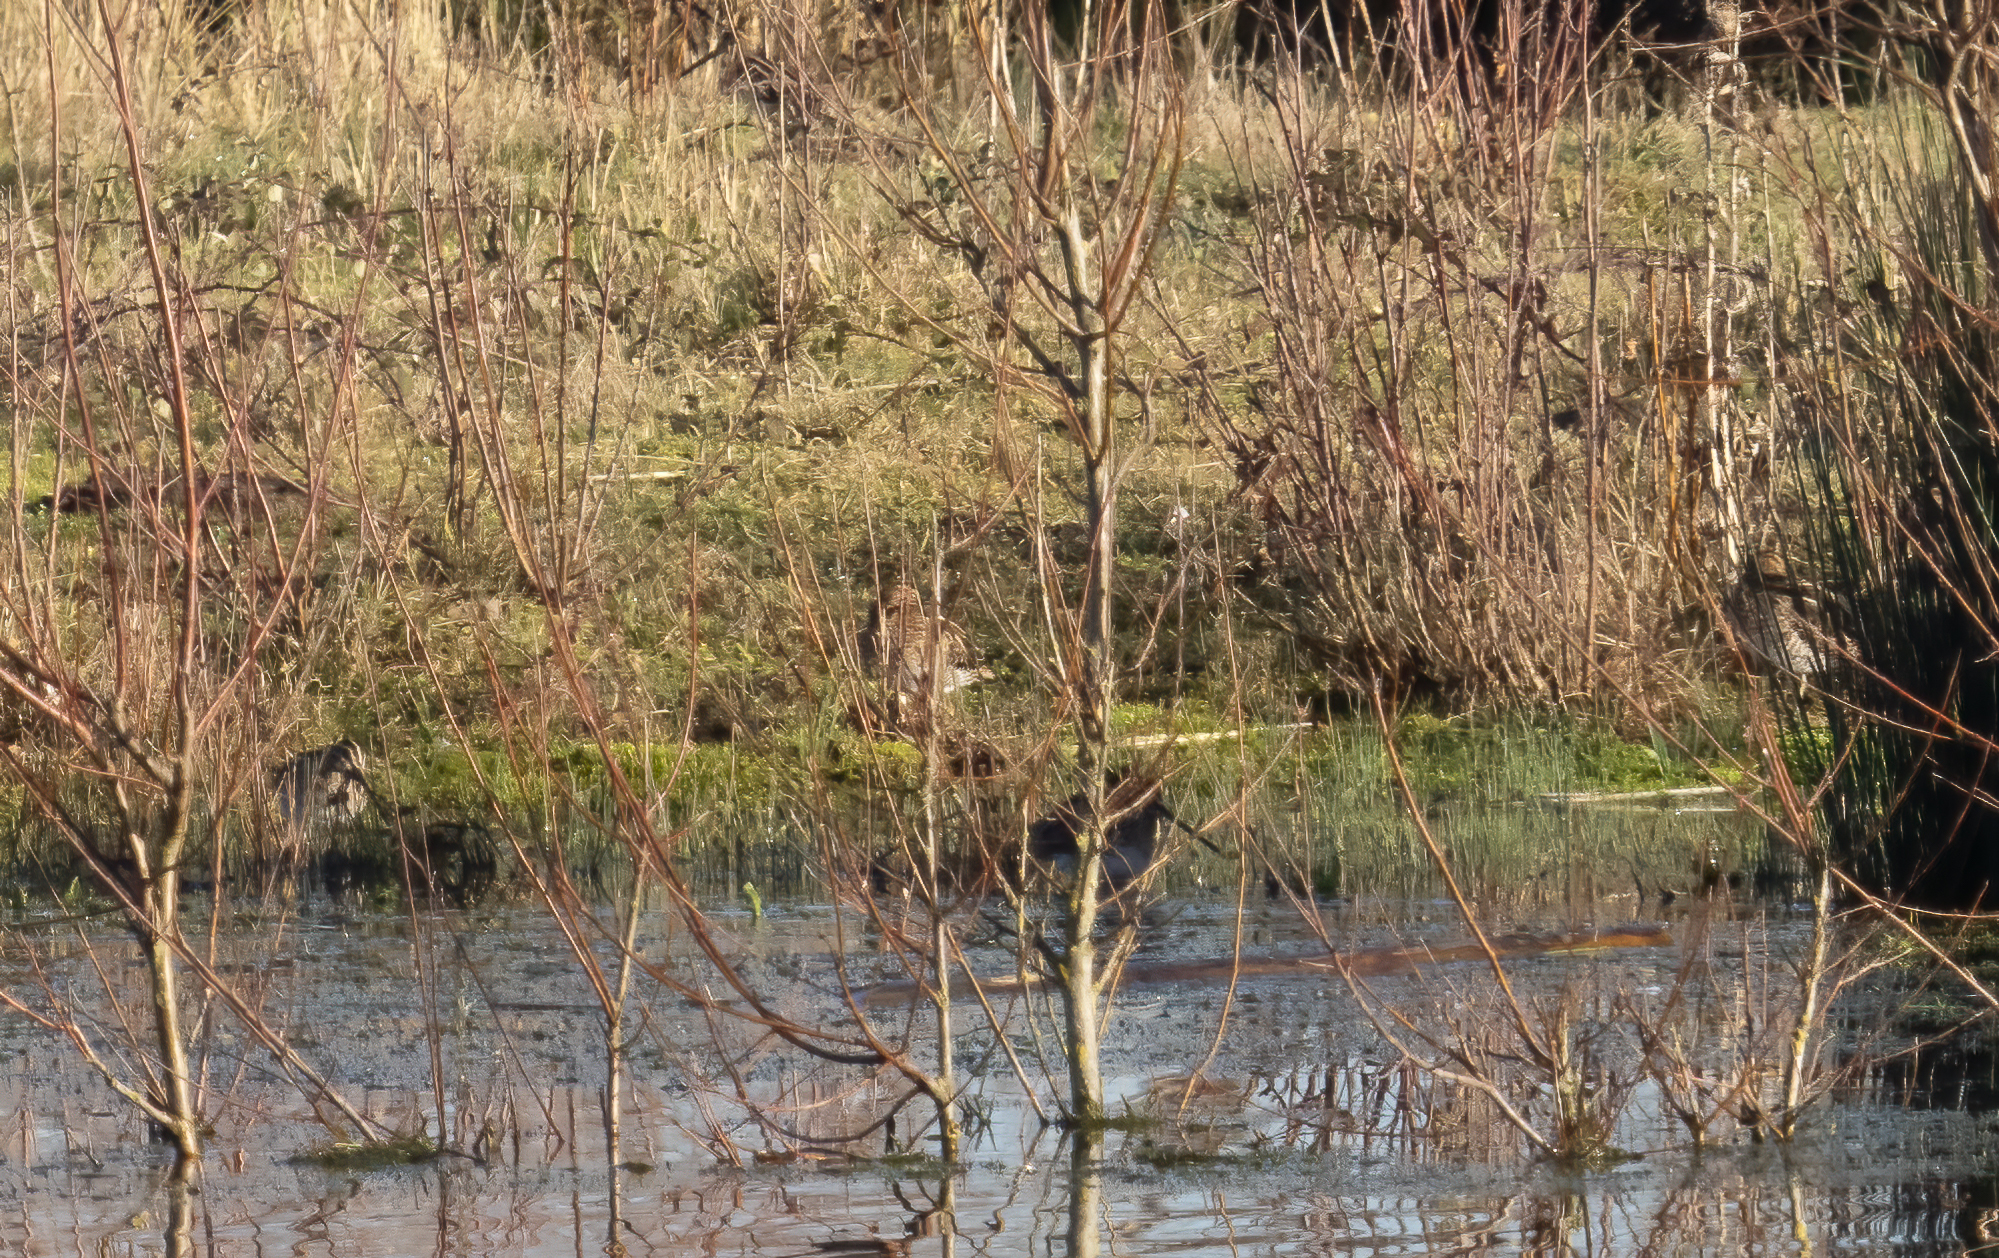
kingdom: Animalia
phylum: Chordata
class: Aves
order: Charadriiformes
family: Scolopacidae
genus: Gallinago
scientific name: Gallinago gallinago
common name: Common snipe
